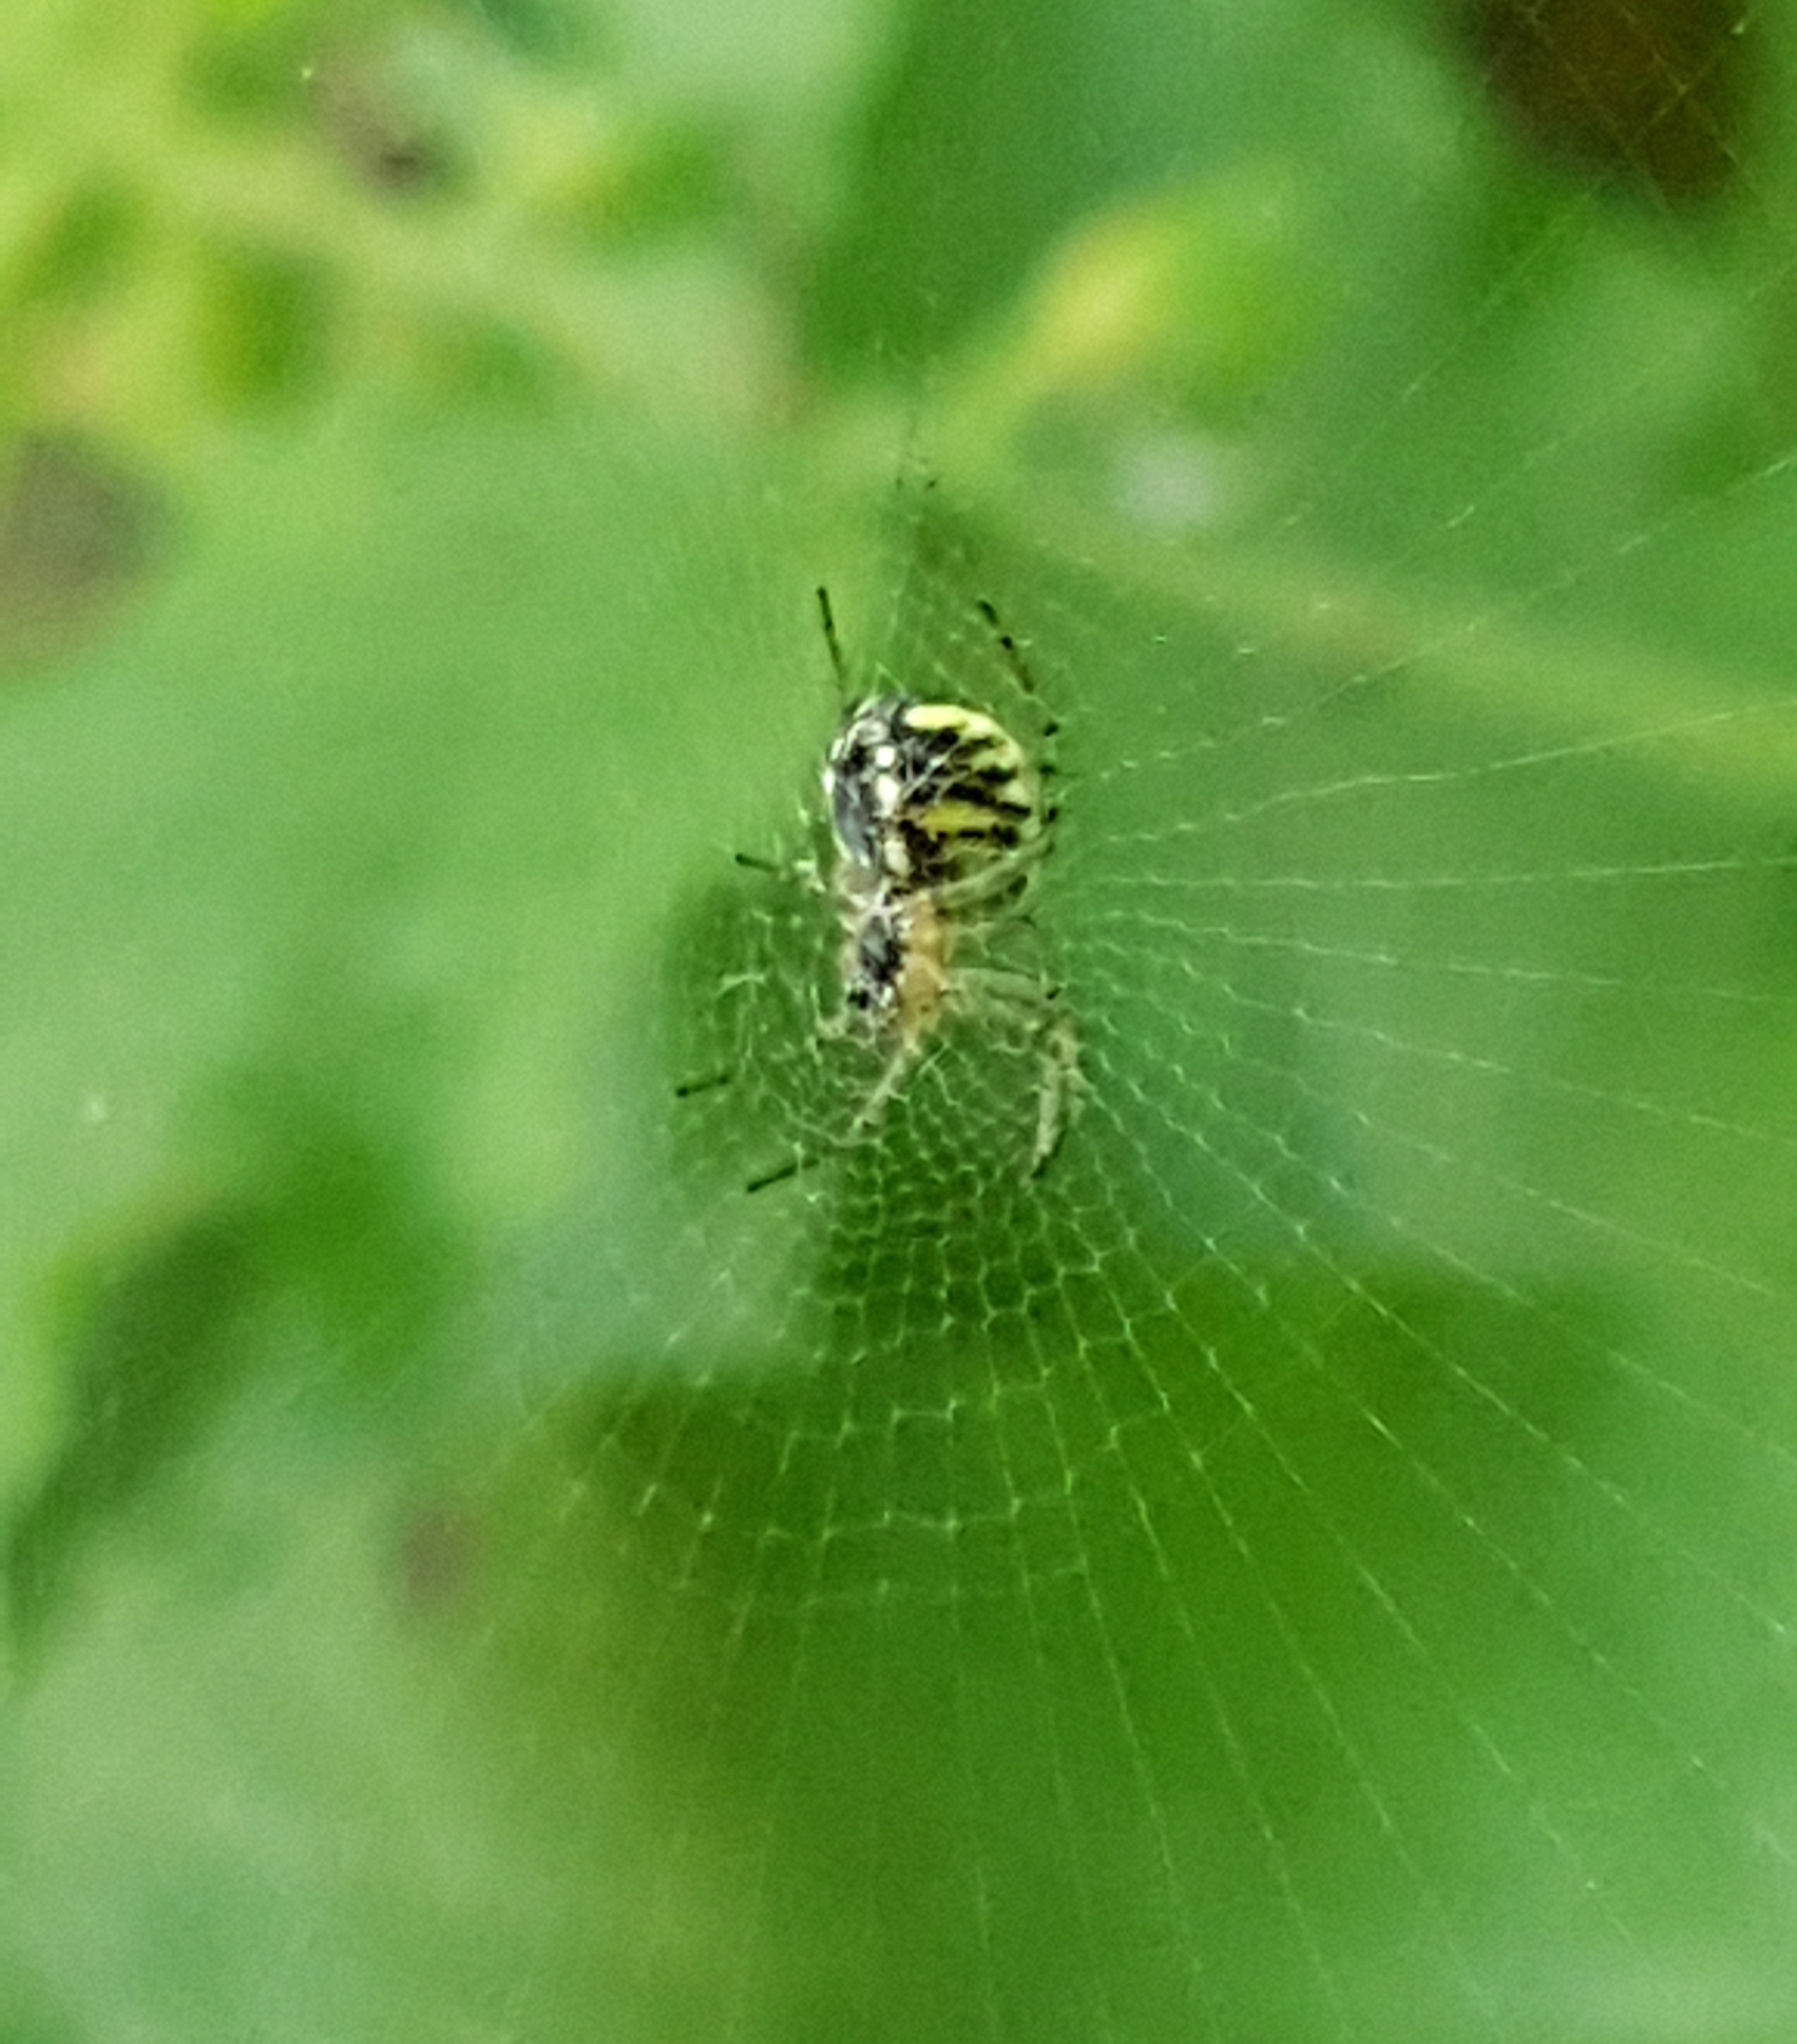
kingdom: Animalia
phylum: Arthropoda
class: Arachnida
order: Araneae
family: Araneidae
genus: Mangora
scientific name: Mangora acalypha
